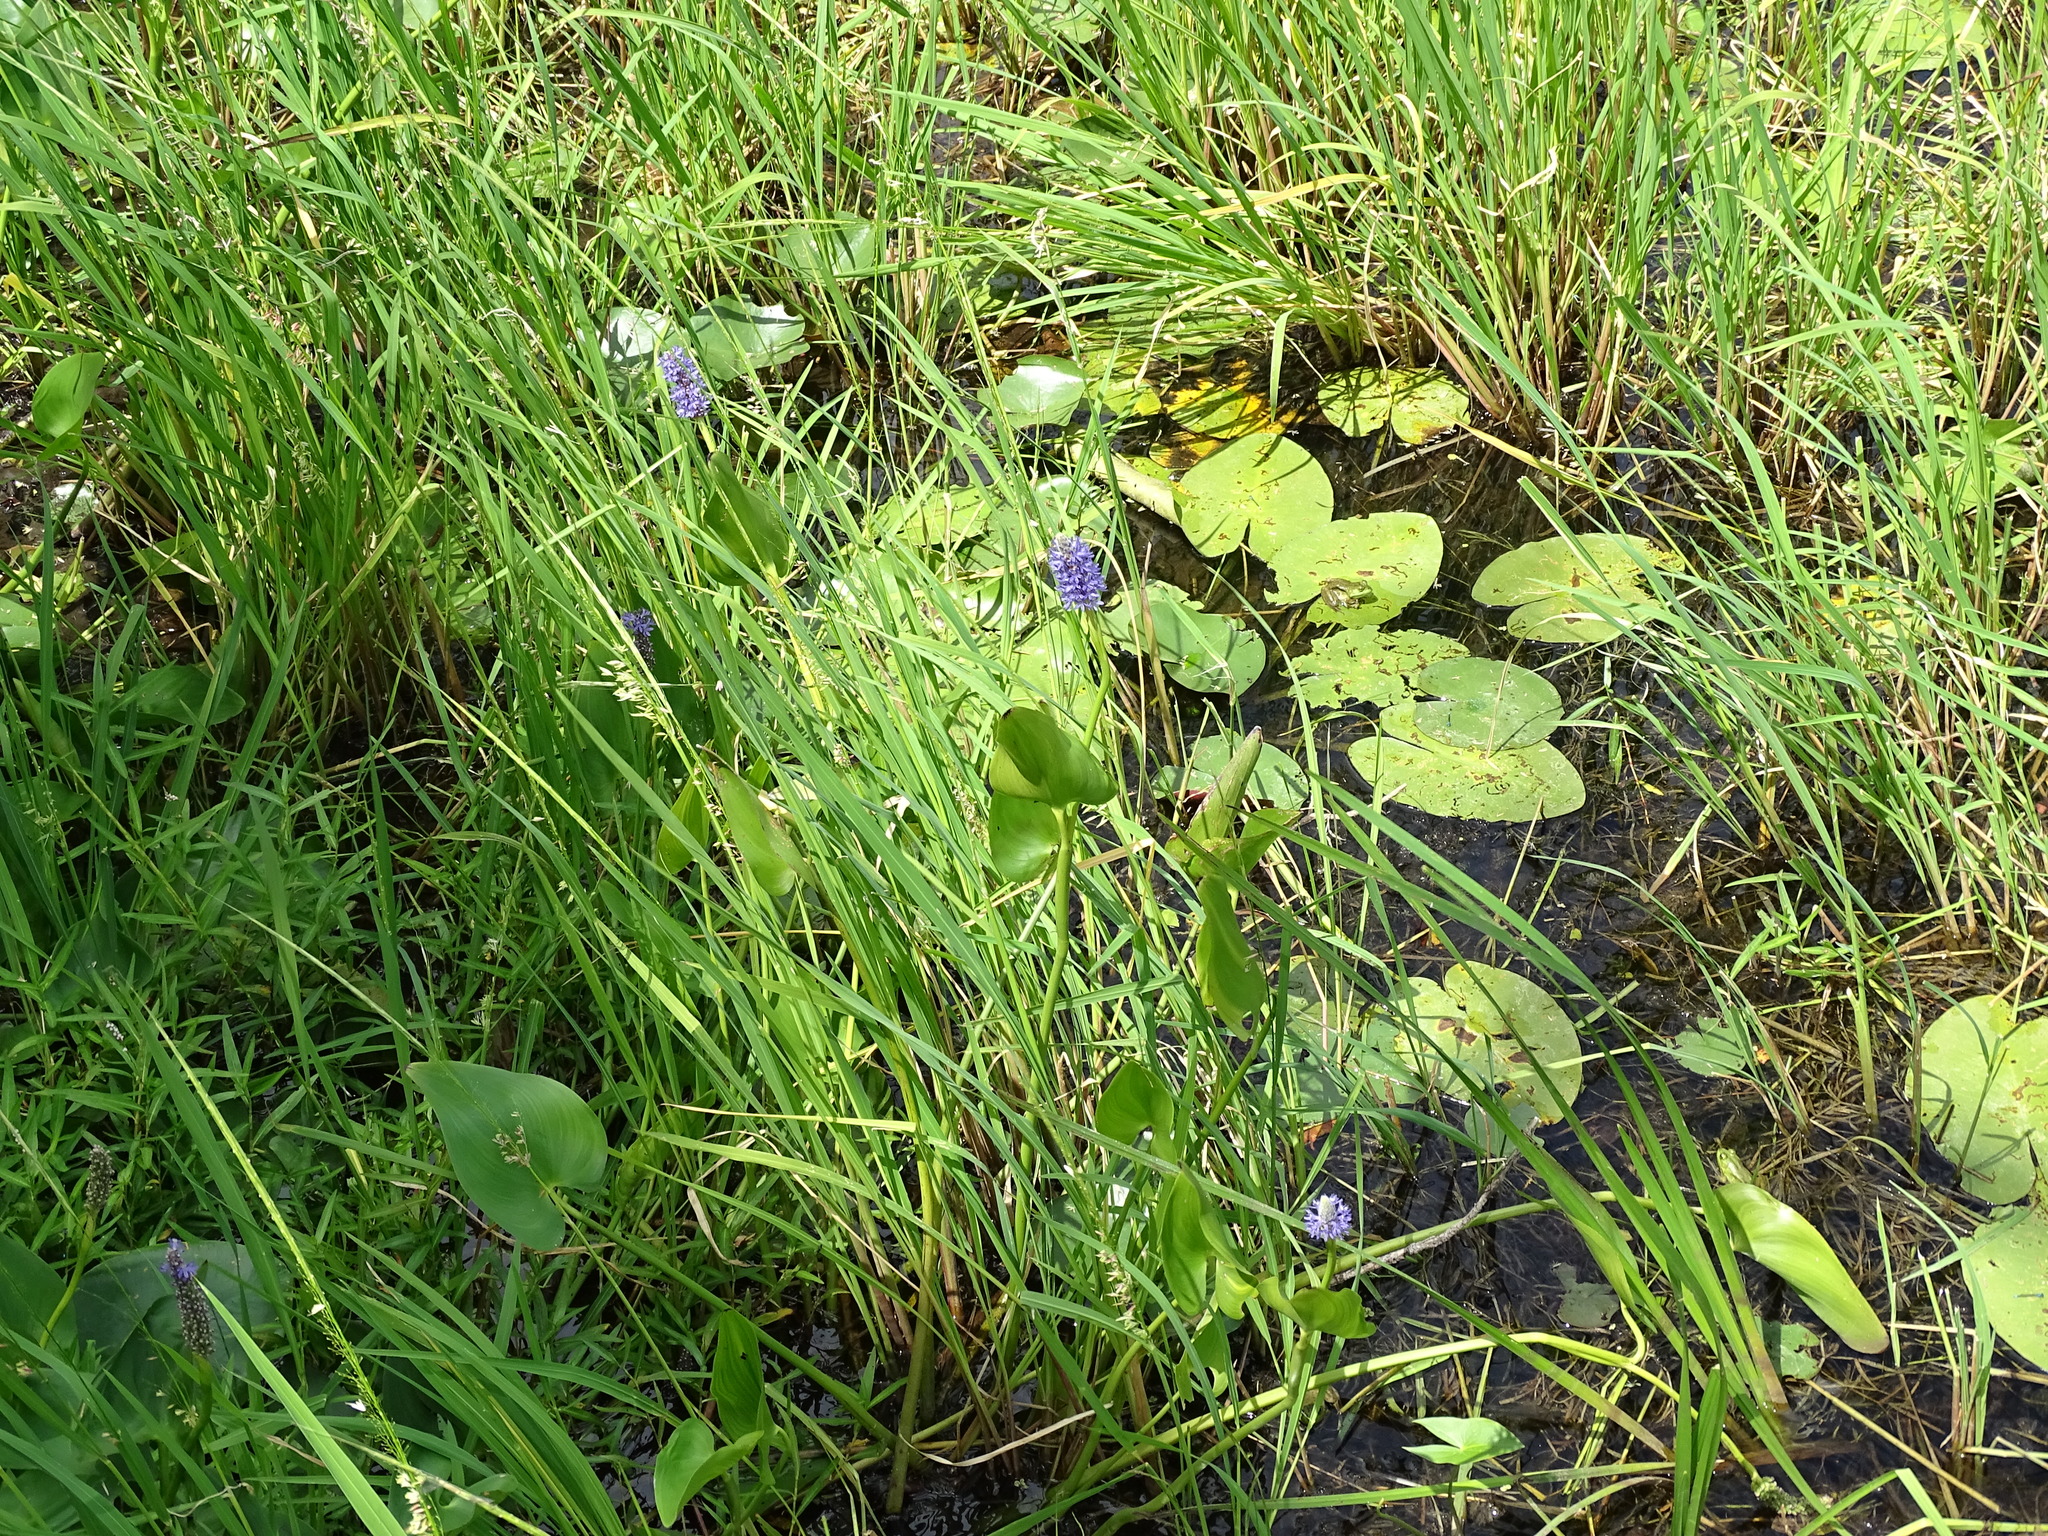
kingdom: Plantae
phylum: Tracheophyta
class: Liliopsida
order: Commelinales
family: Pontederiaceae
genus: Pontederia
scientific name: Pontederia cordata
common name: Pickerelweed
